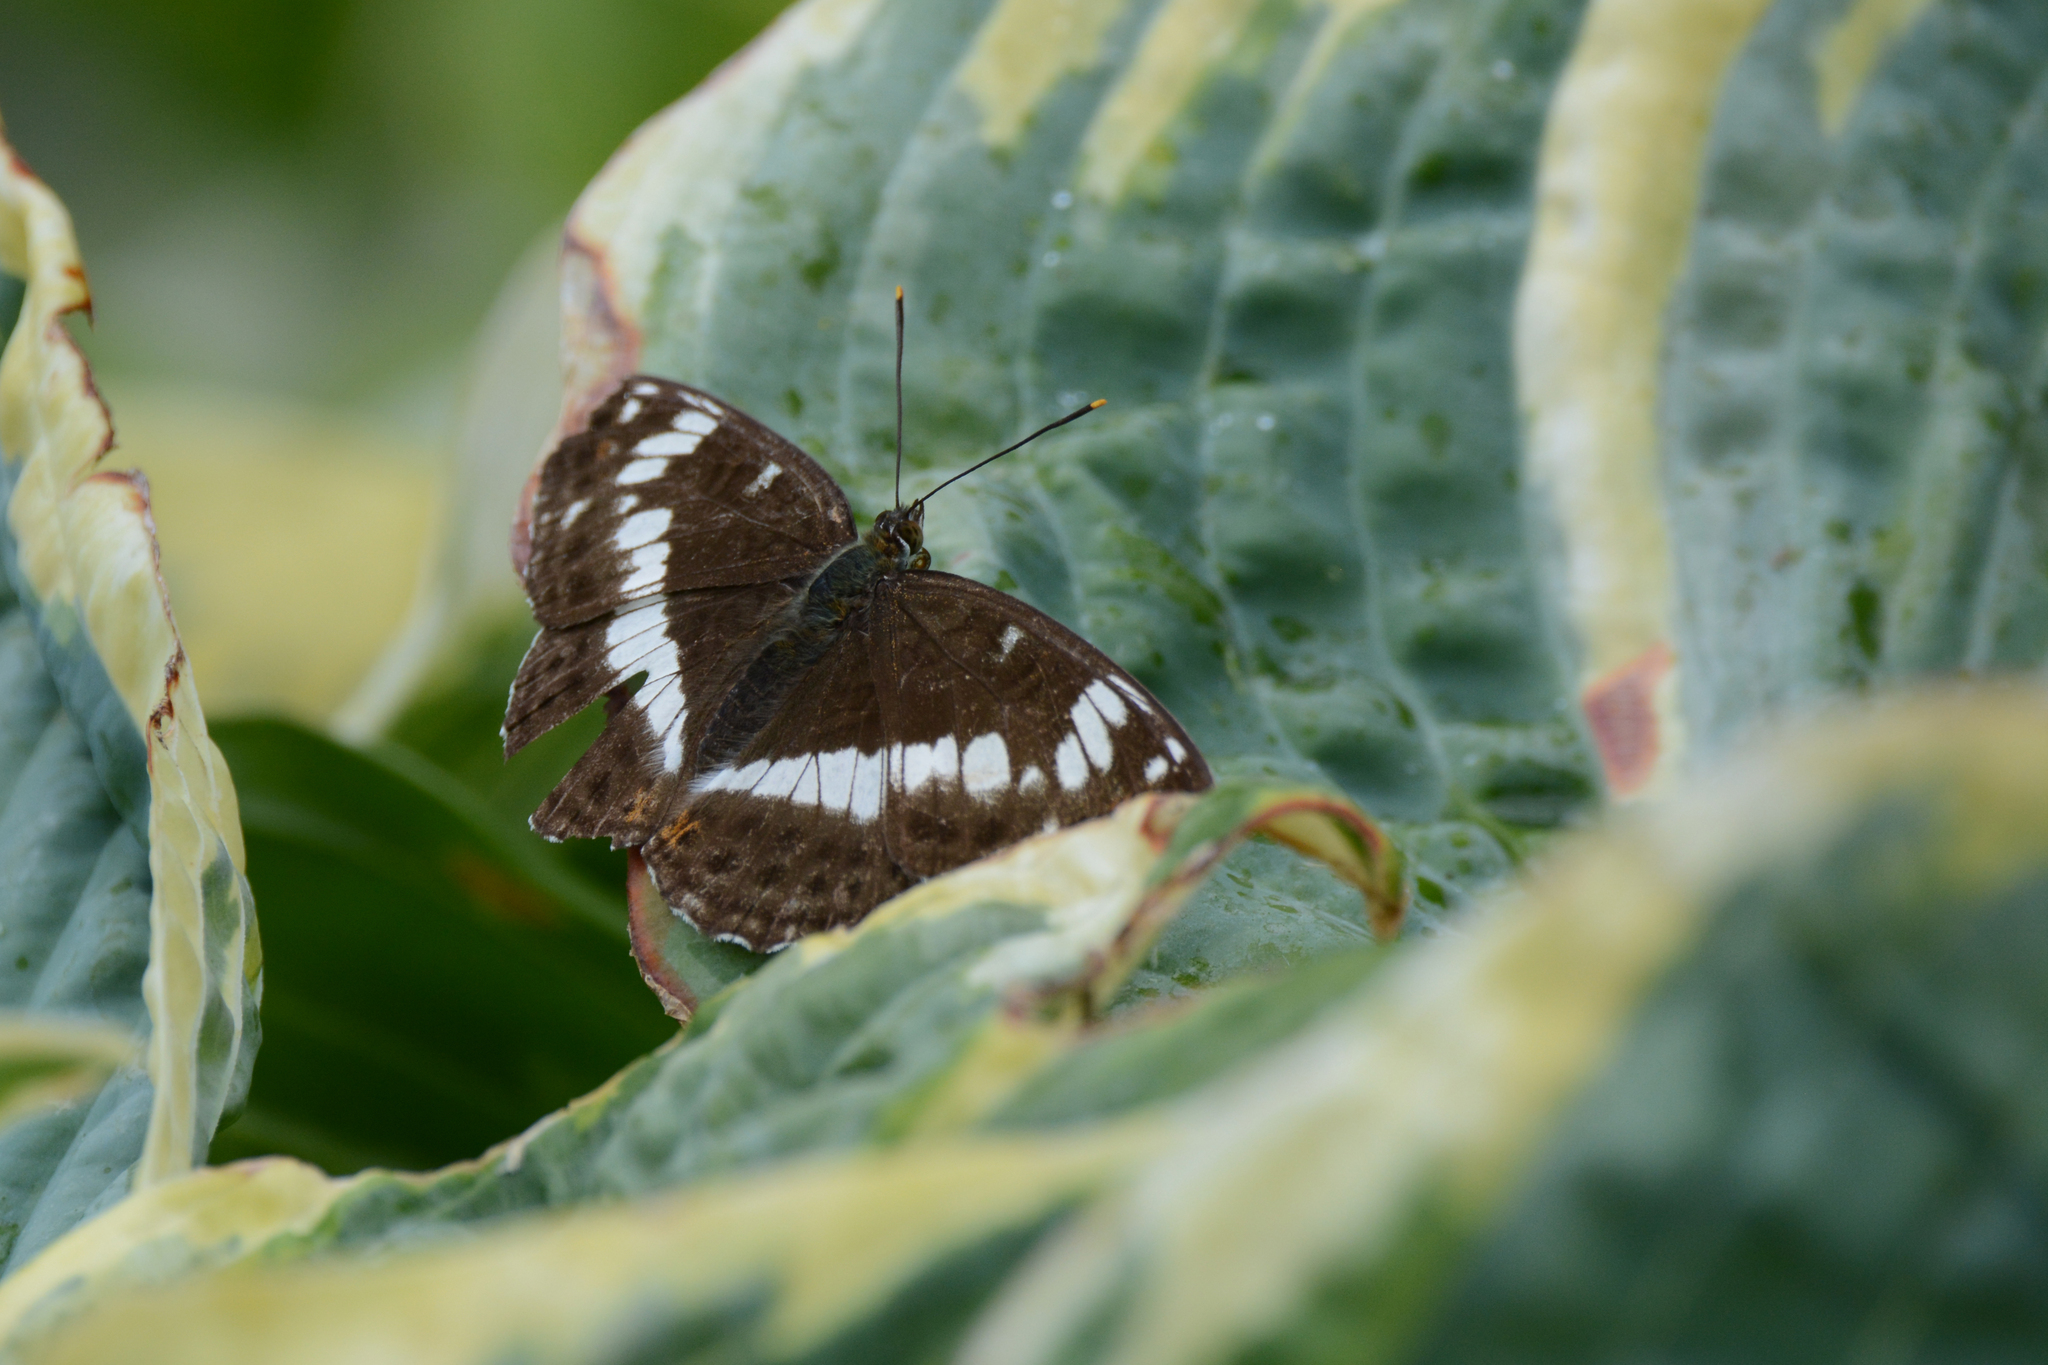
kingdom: Animalia
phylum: Arthropoda
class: Insecta
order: Lepidoptera
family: Nymphalidae
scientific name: Nymphalidae
